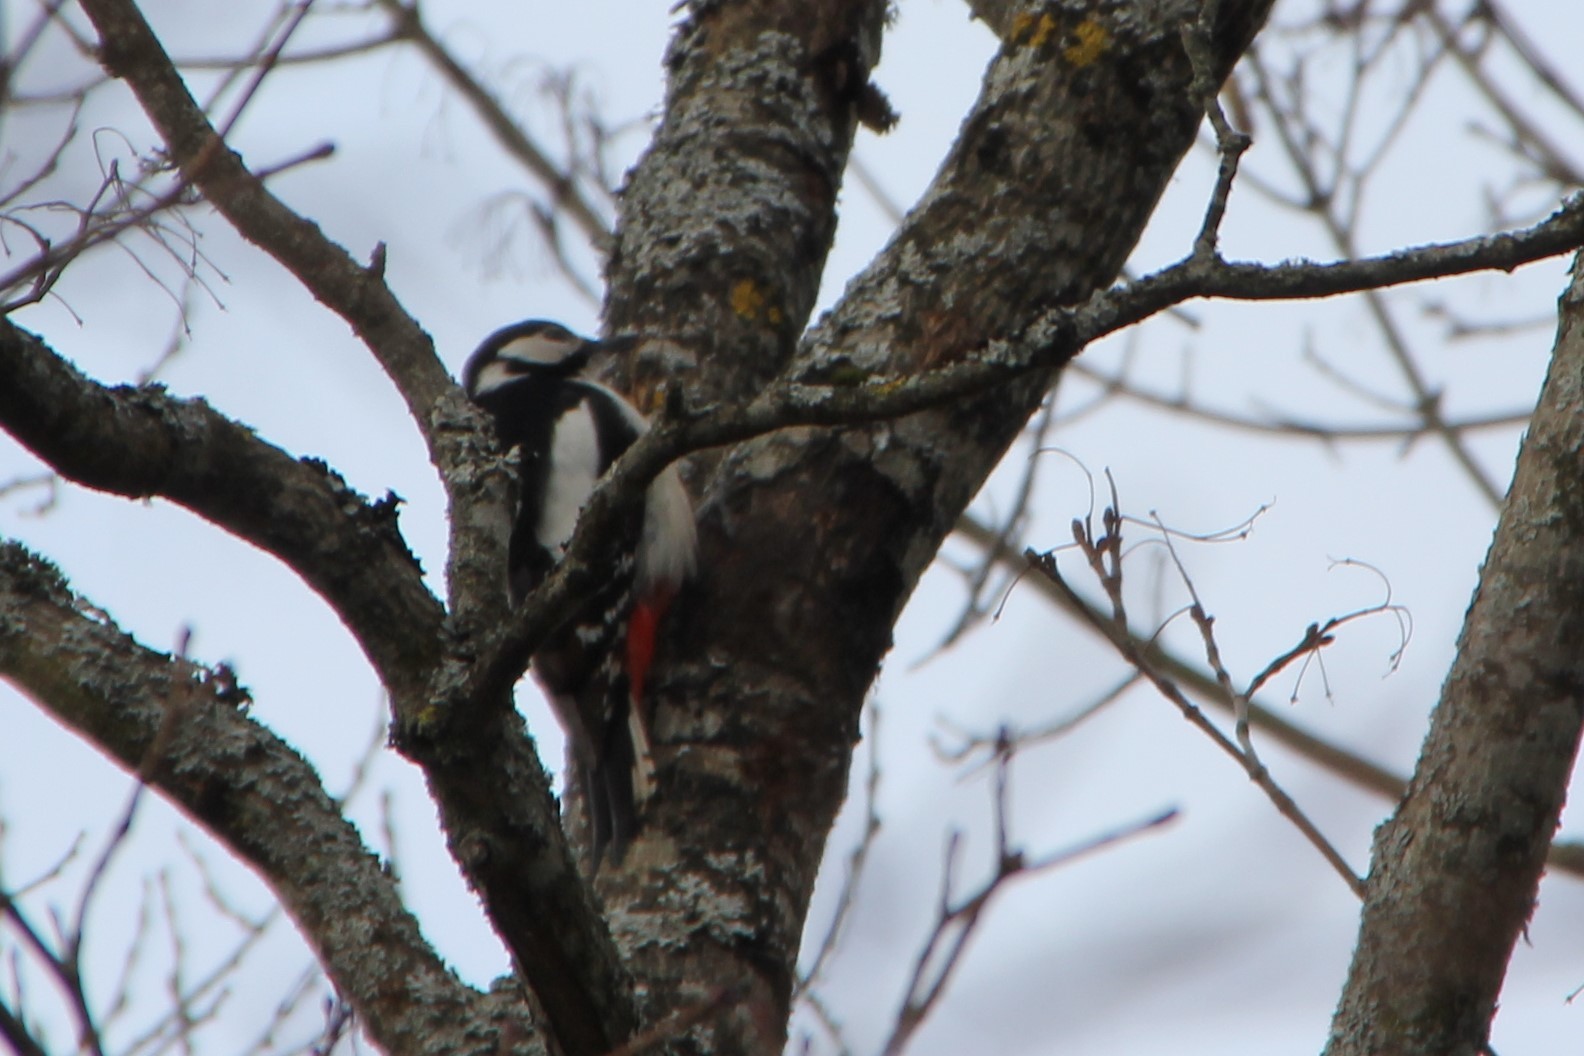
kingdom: Animalia
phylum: Chordata
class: Aves
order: Piciformes
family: Picidae
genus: Dendrocopos
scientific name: Dendrocopos major
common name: Great spotted woodpecker
